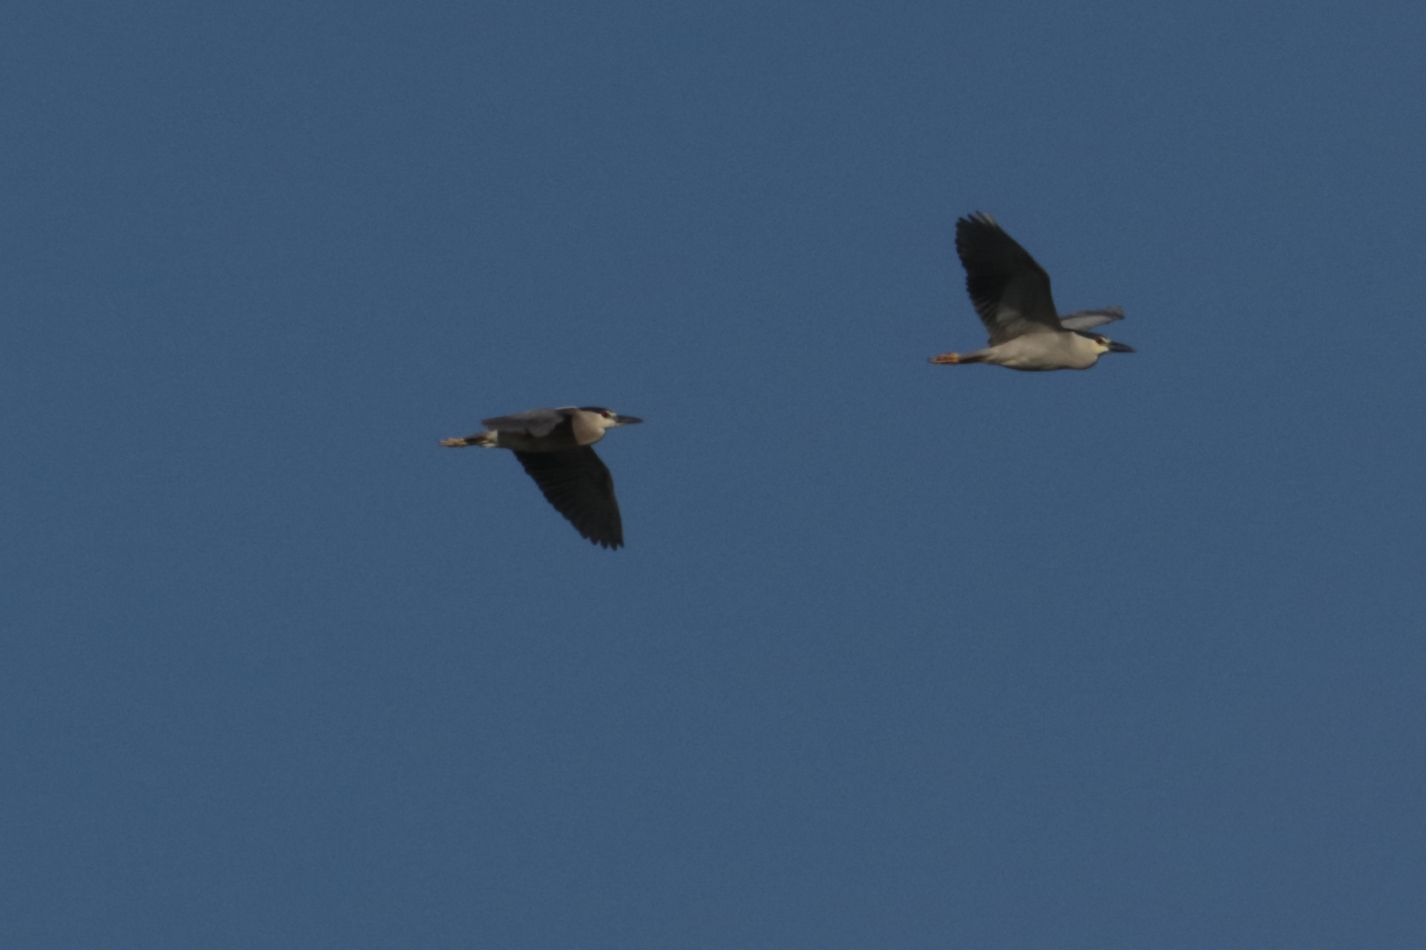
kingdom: Animalia
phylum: Chordata
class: Aves
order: Pelecaniformes
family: Ardeidae
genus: Nycticorax
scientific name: Nycticorax nycticorax
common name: Black-crowned night heron
